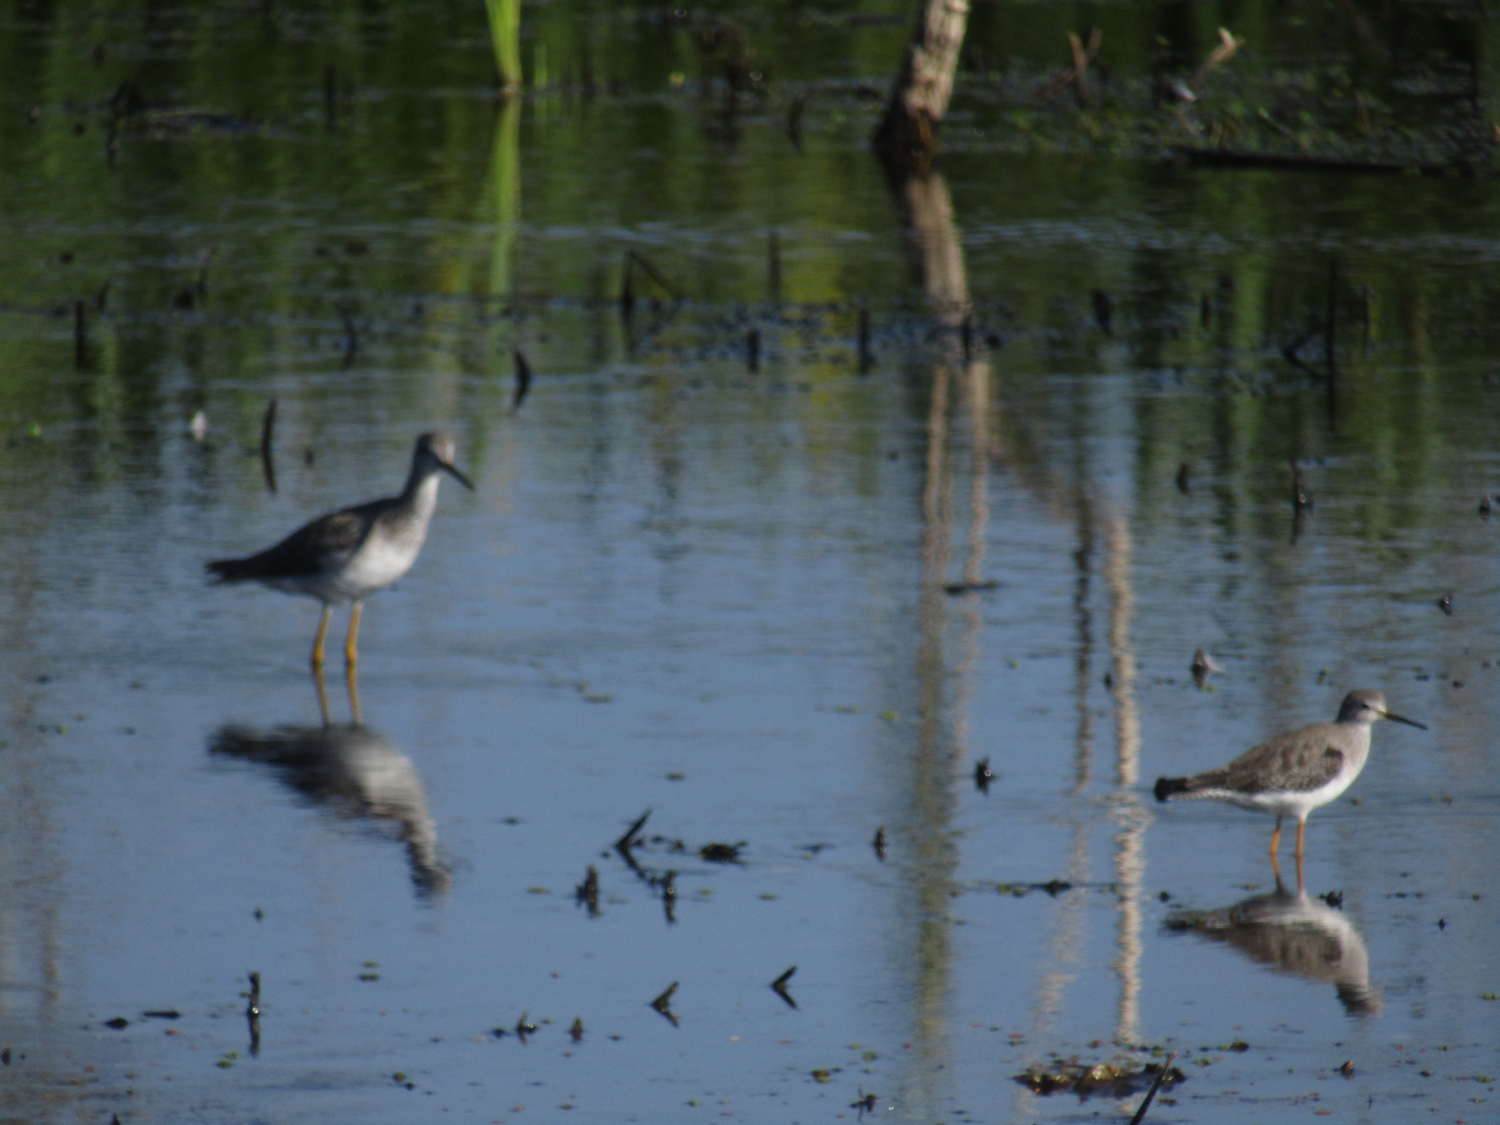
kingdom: Animalia
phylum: Chordata
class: Aves
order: Charadriiformes
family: Scolopacidae
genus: Tringa
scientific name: Tringa melanoleuca
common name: Greater yellowlegs
